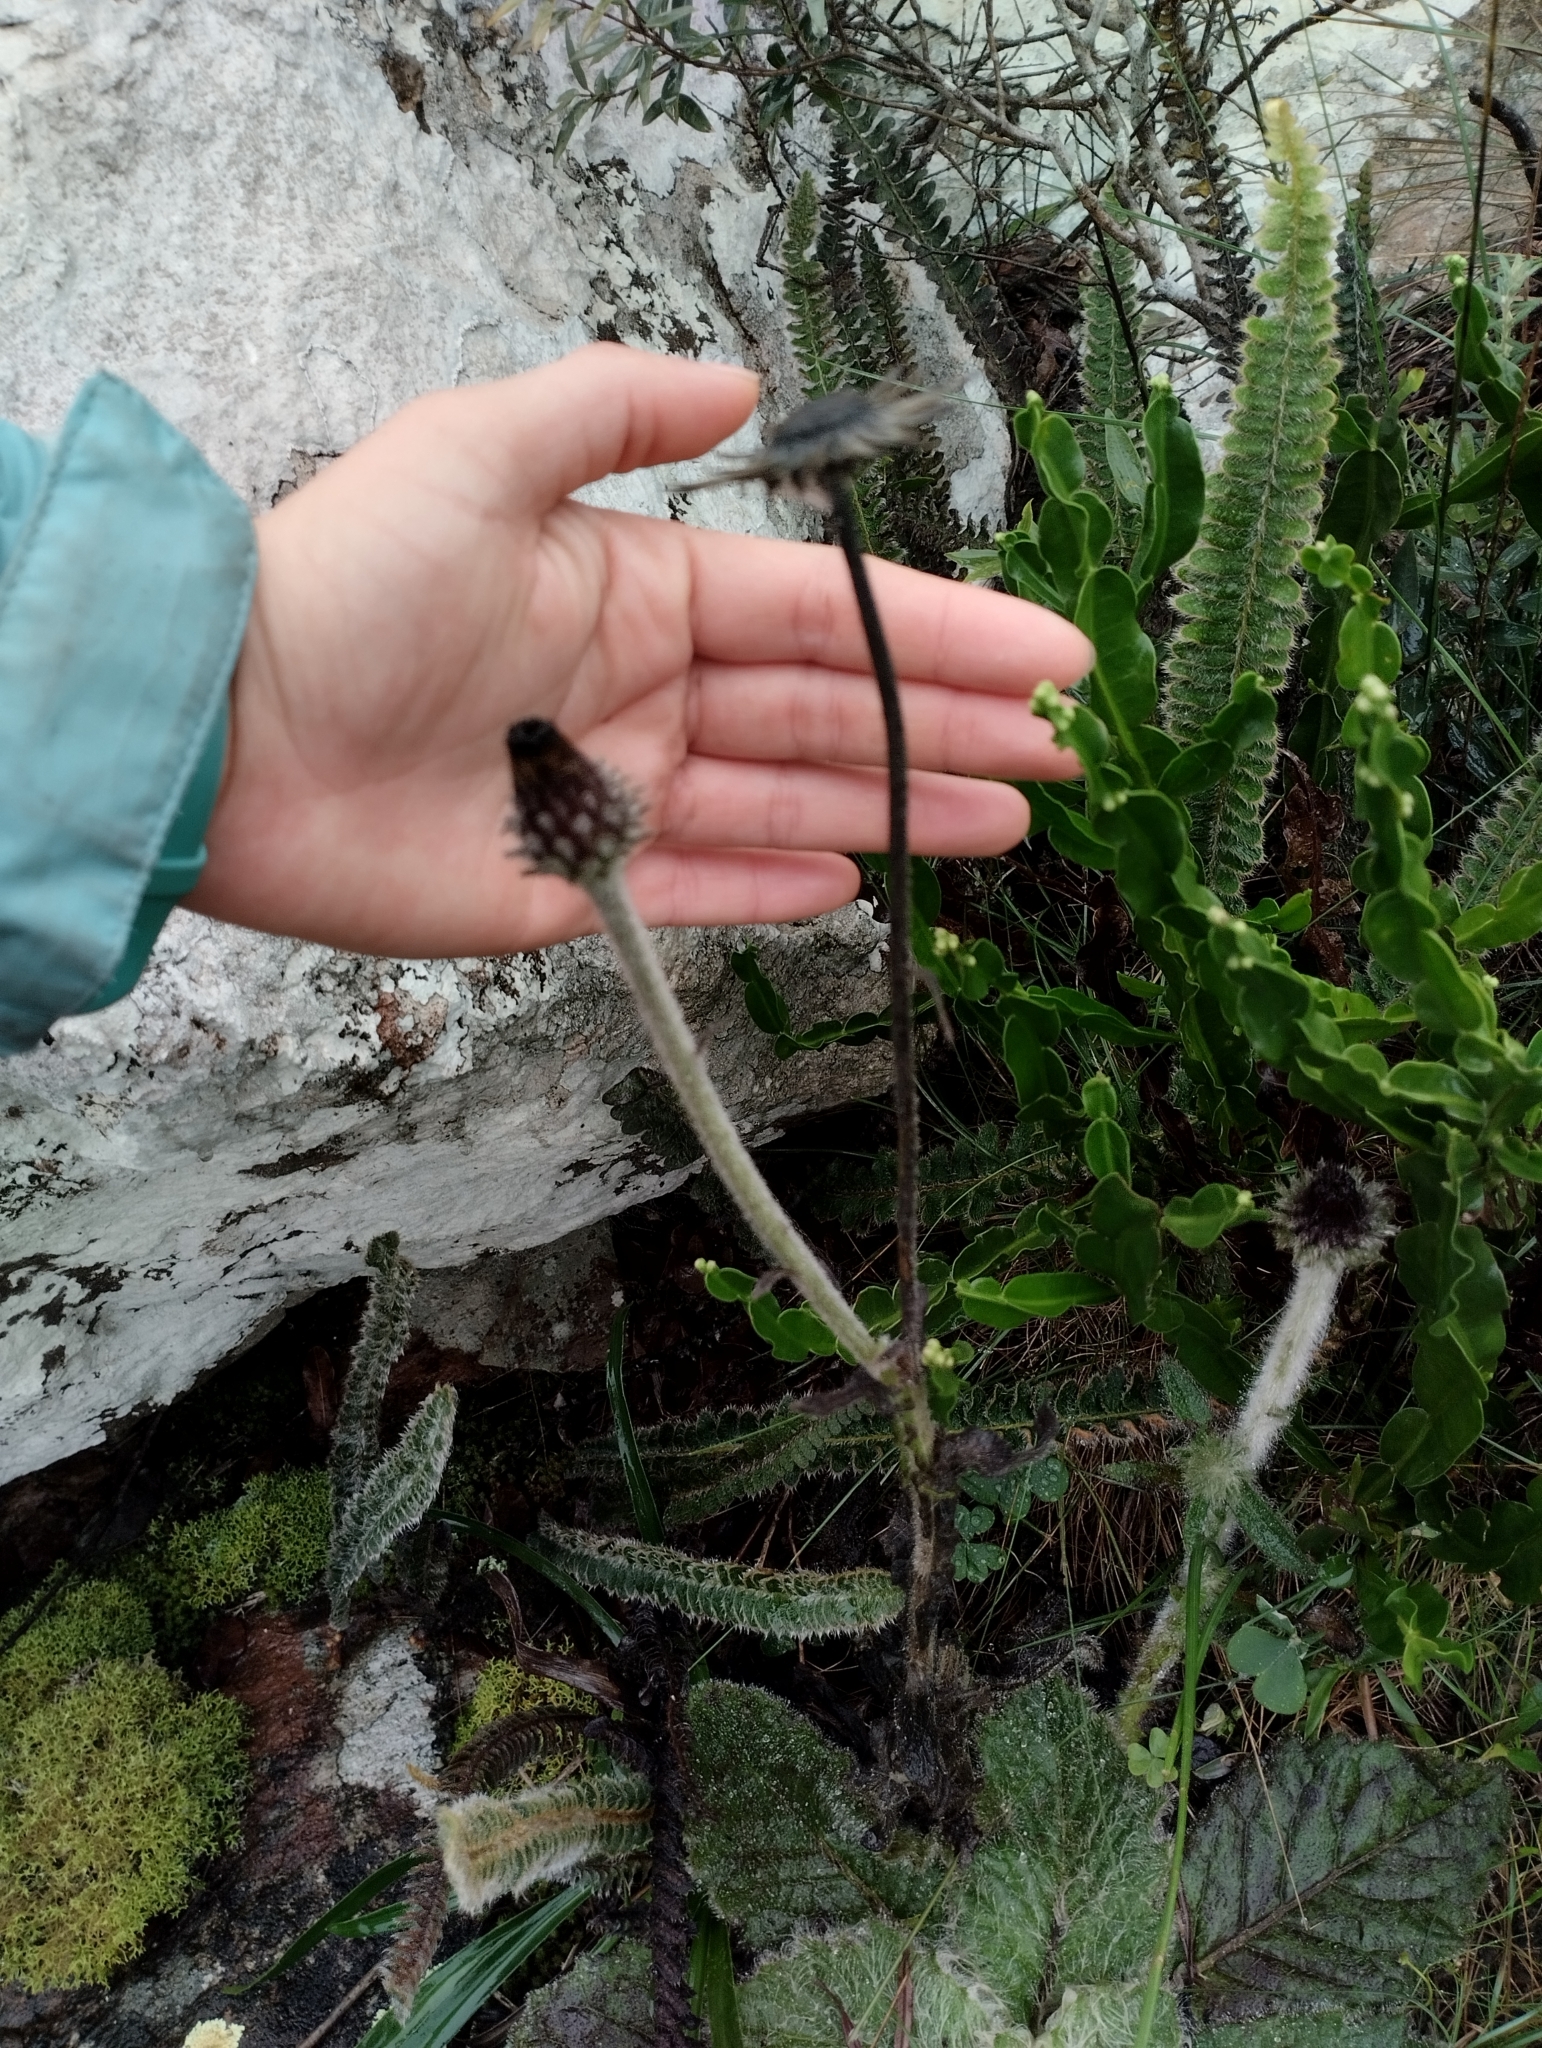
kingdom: Plantae
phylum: Tracheophyta
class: Magnoliopsida
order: Asterales
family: Asteraceae
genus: Stenachaenium
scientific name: Stenachaenium riedelii
